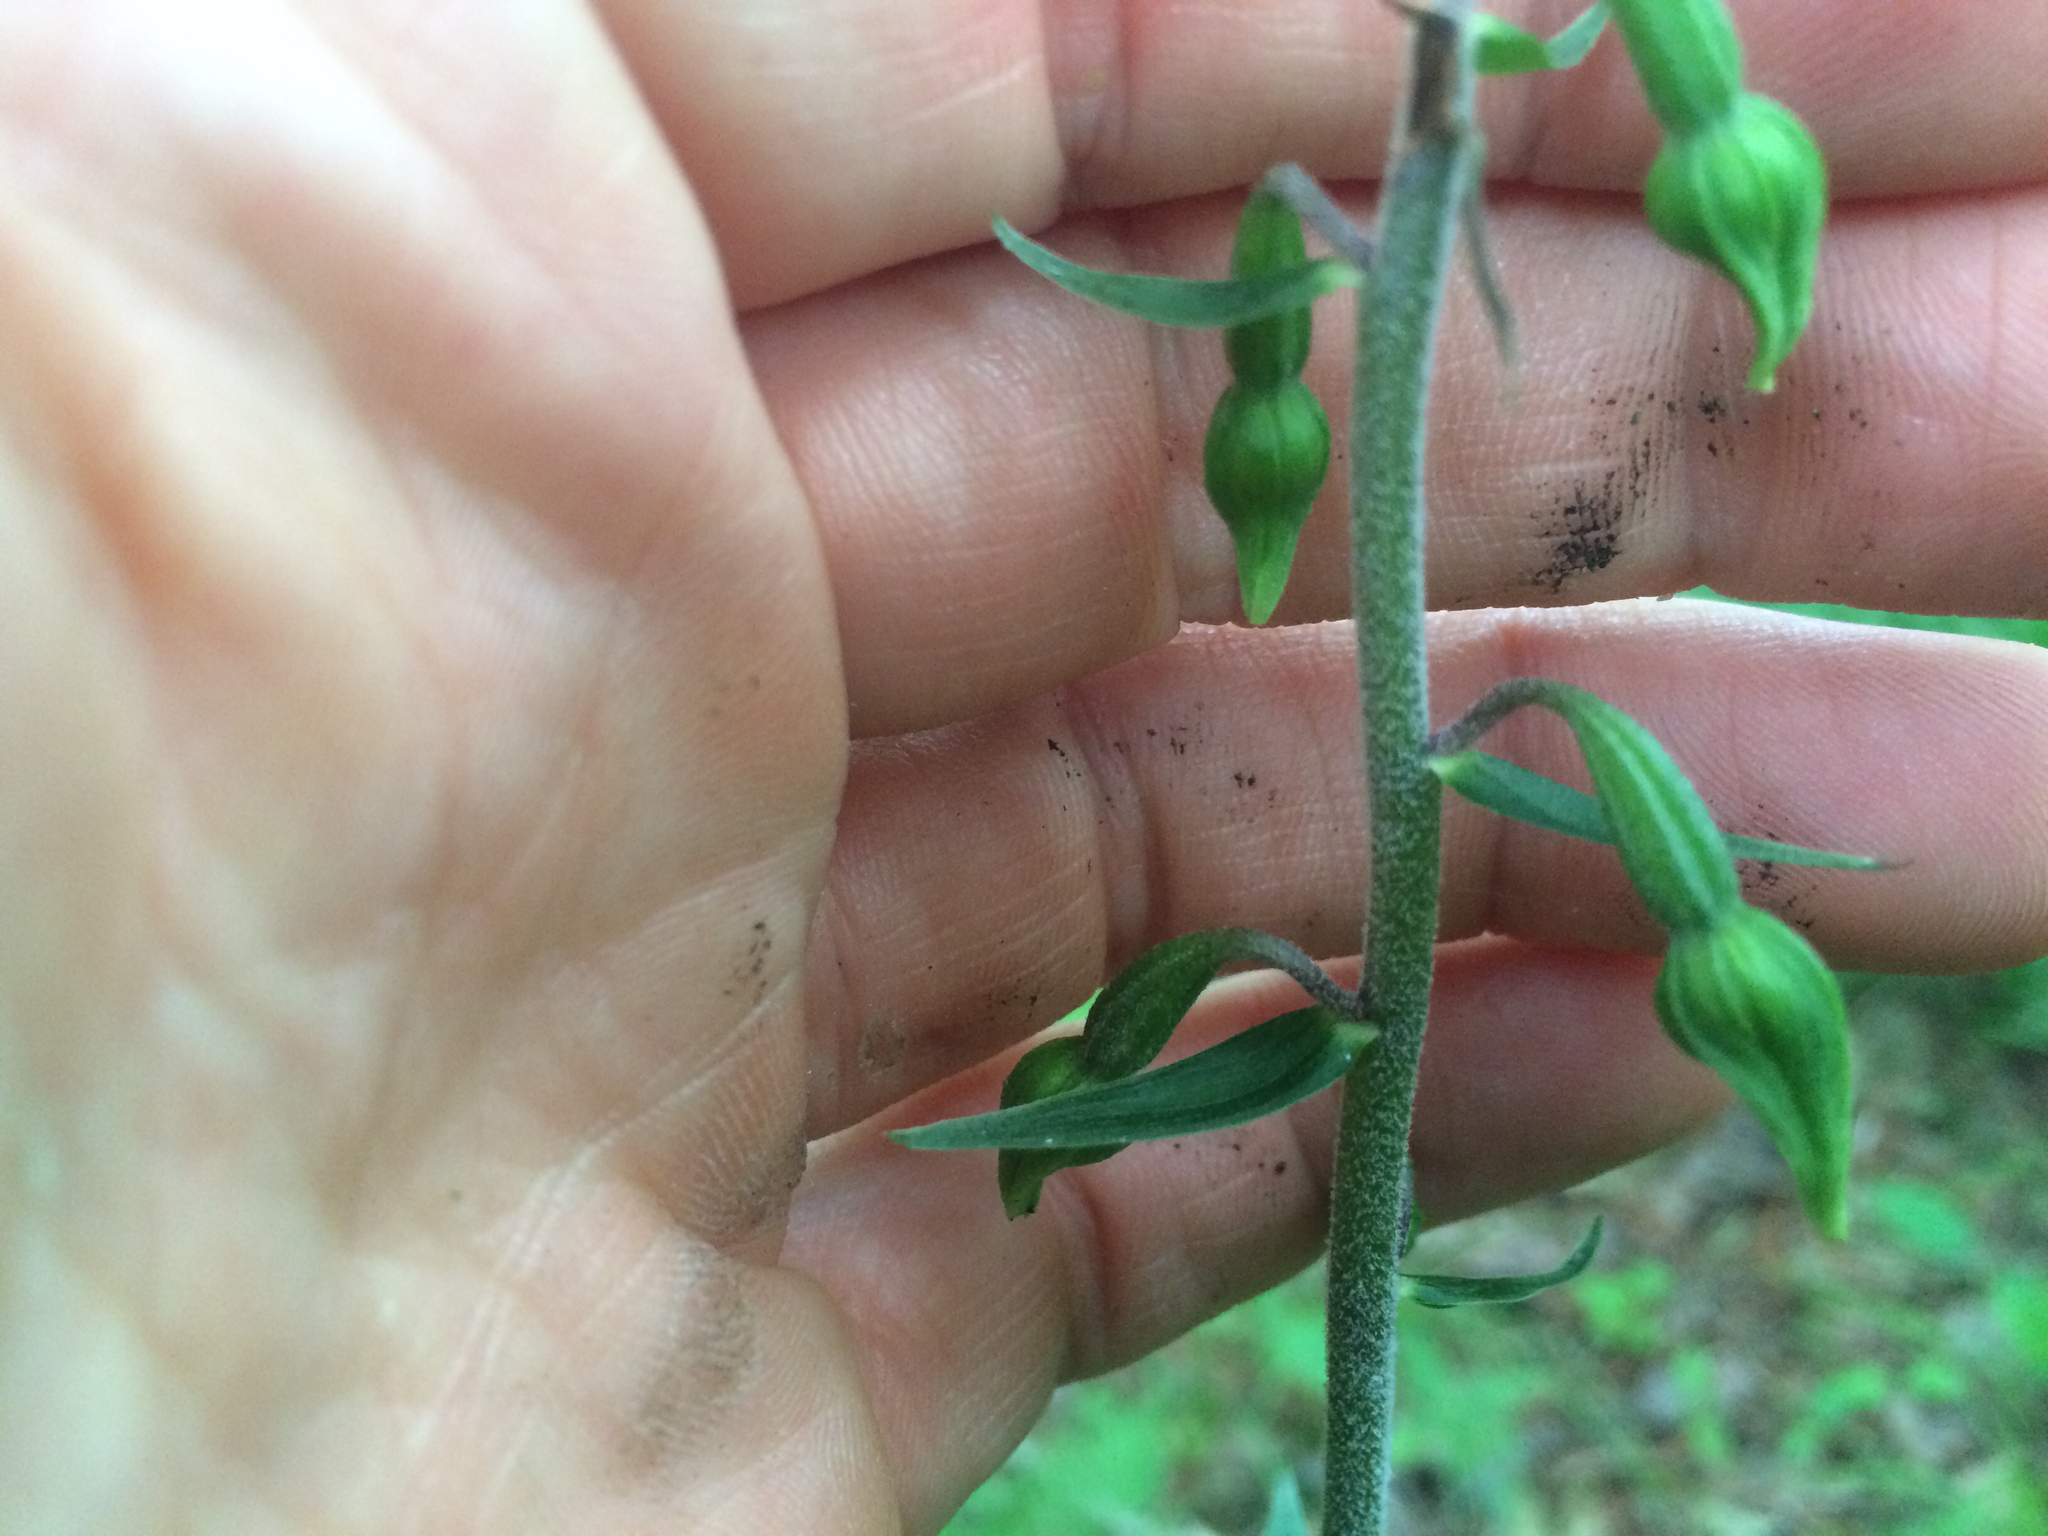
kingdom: Plantae
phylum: Tracheophyta
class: Liliopsida
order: Asparagales
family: Orchidaceae
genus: Epipactis
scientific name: Epipactis helleborine
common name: Broad-leaved helleborine
